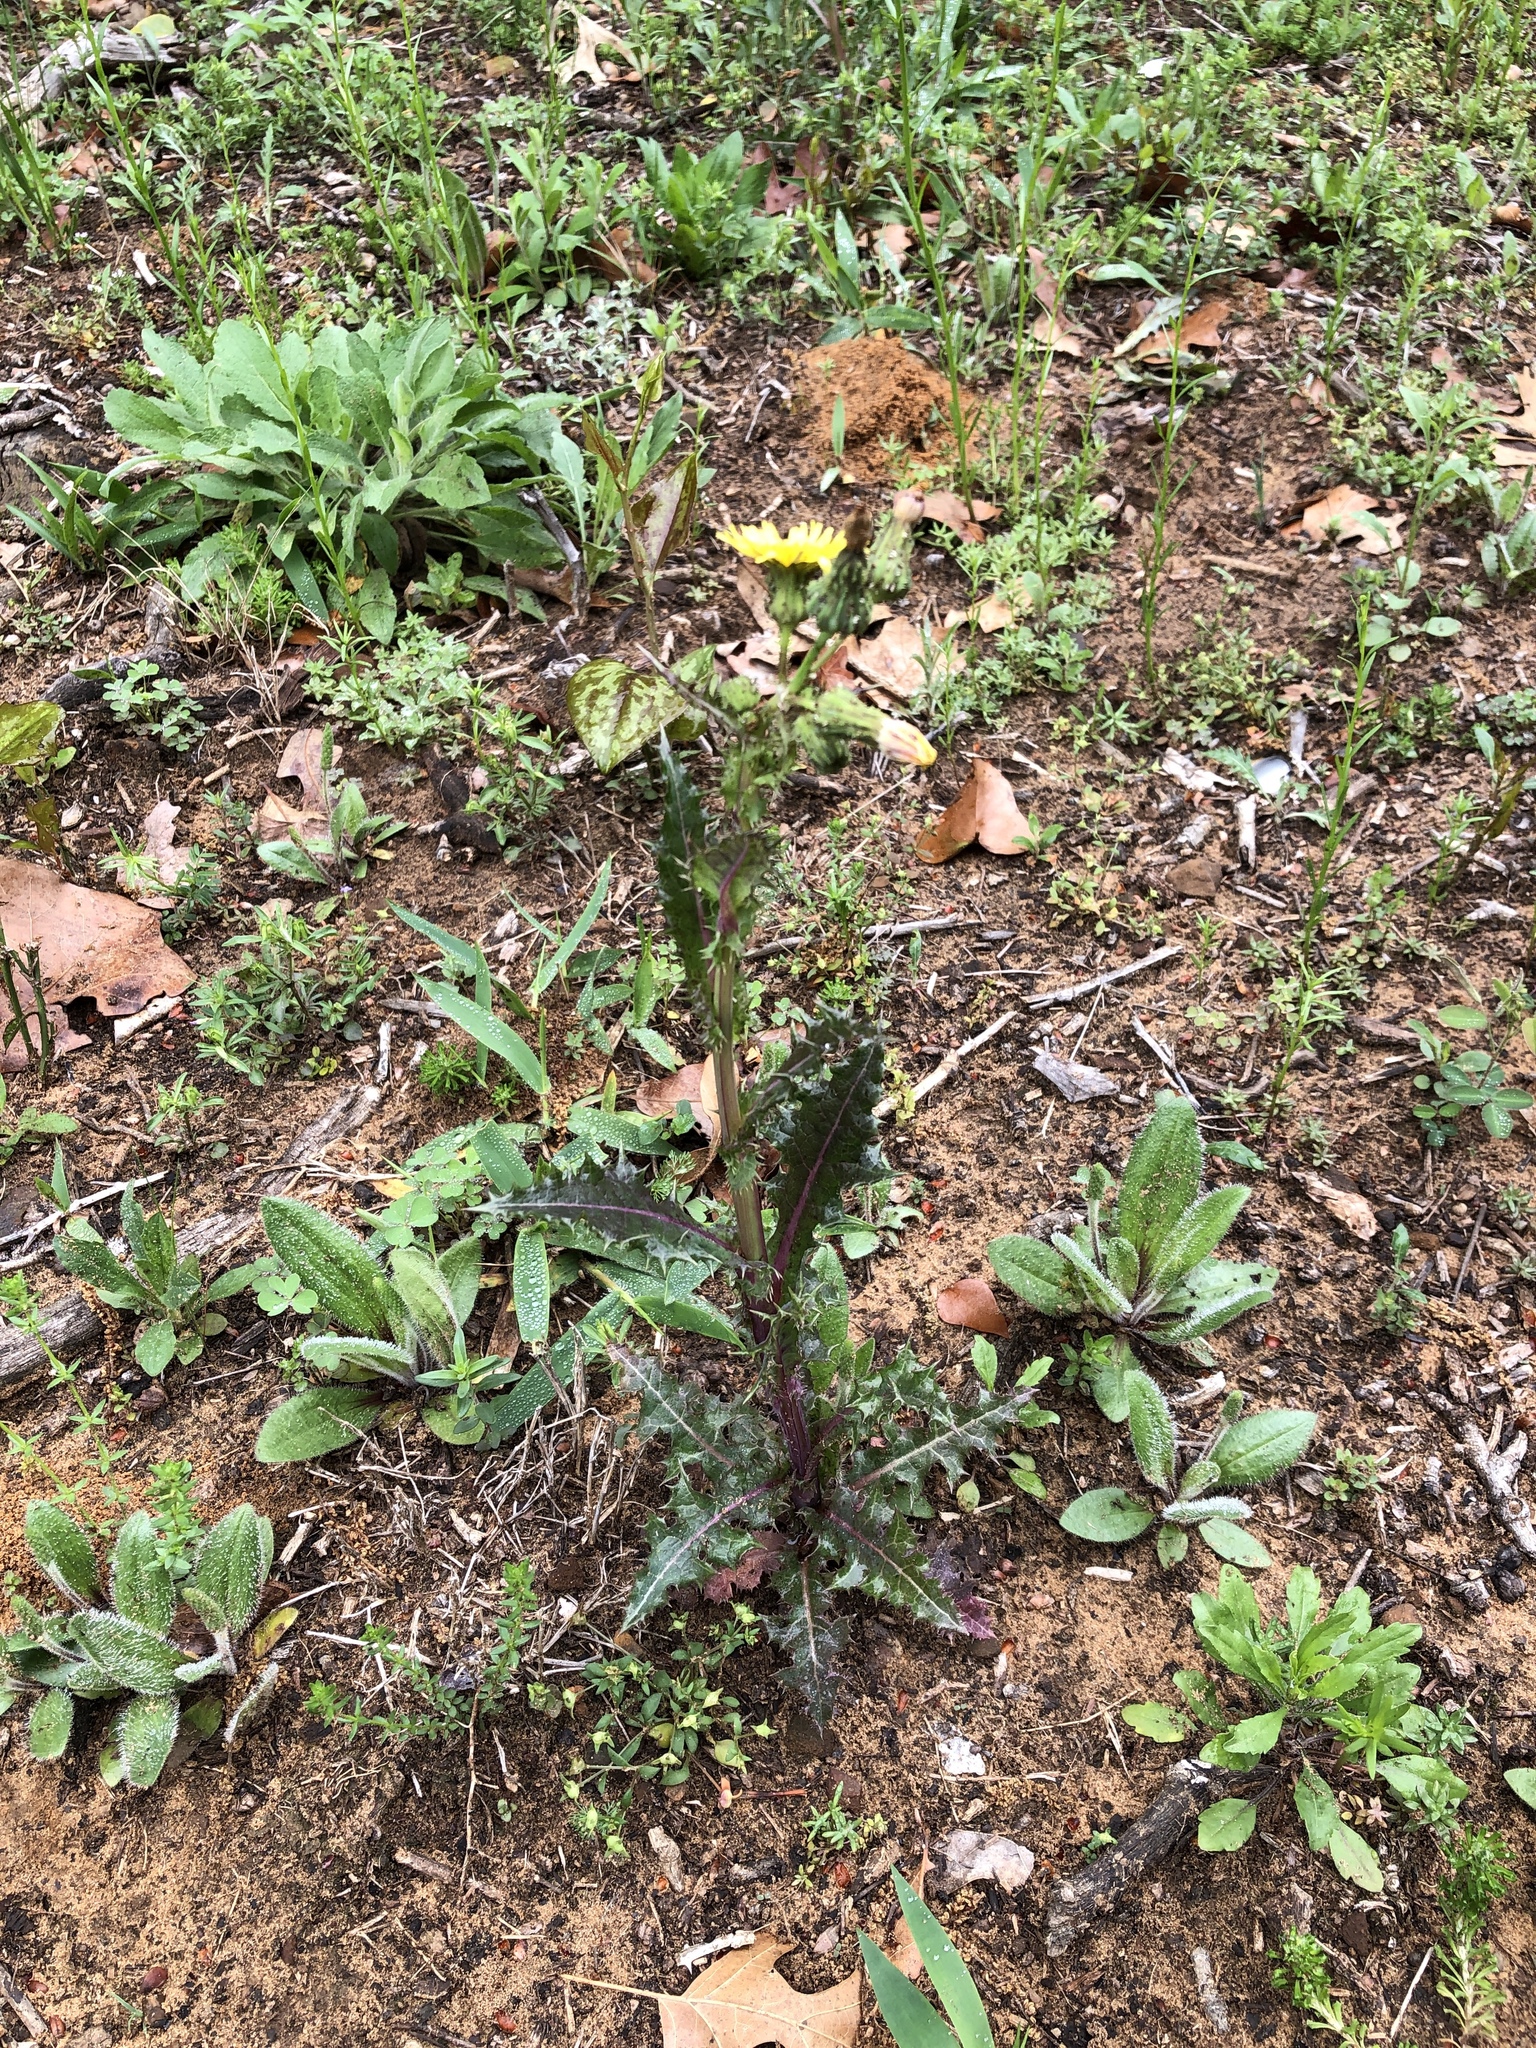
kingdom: Plantae
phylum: Tracheophyta
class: Magnoliopsida
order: Asterales
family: Asteraceae
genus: Sonchus
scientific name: Sonchus asper
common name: Prickly sow-thistle
